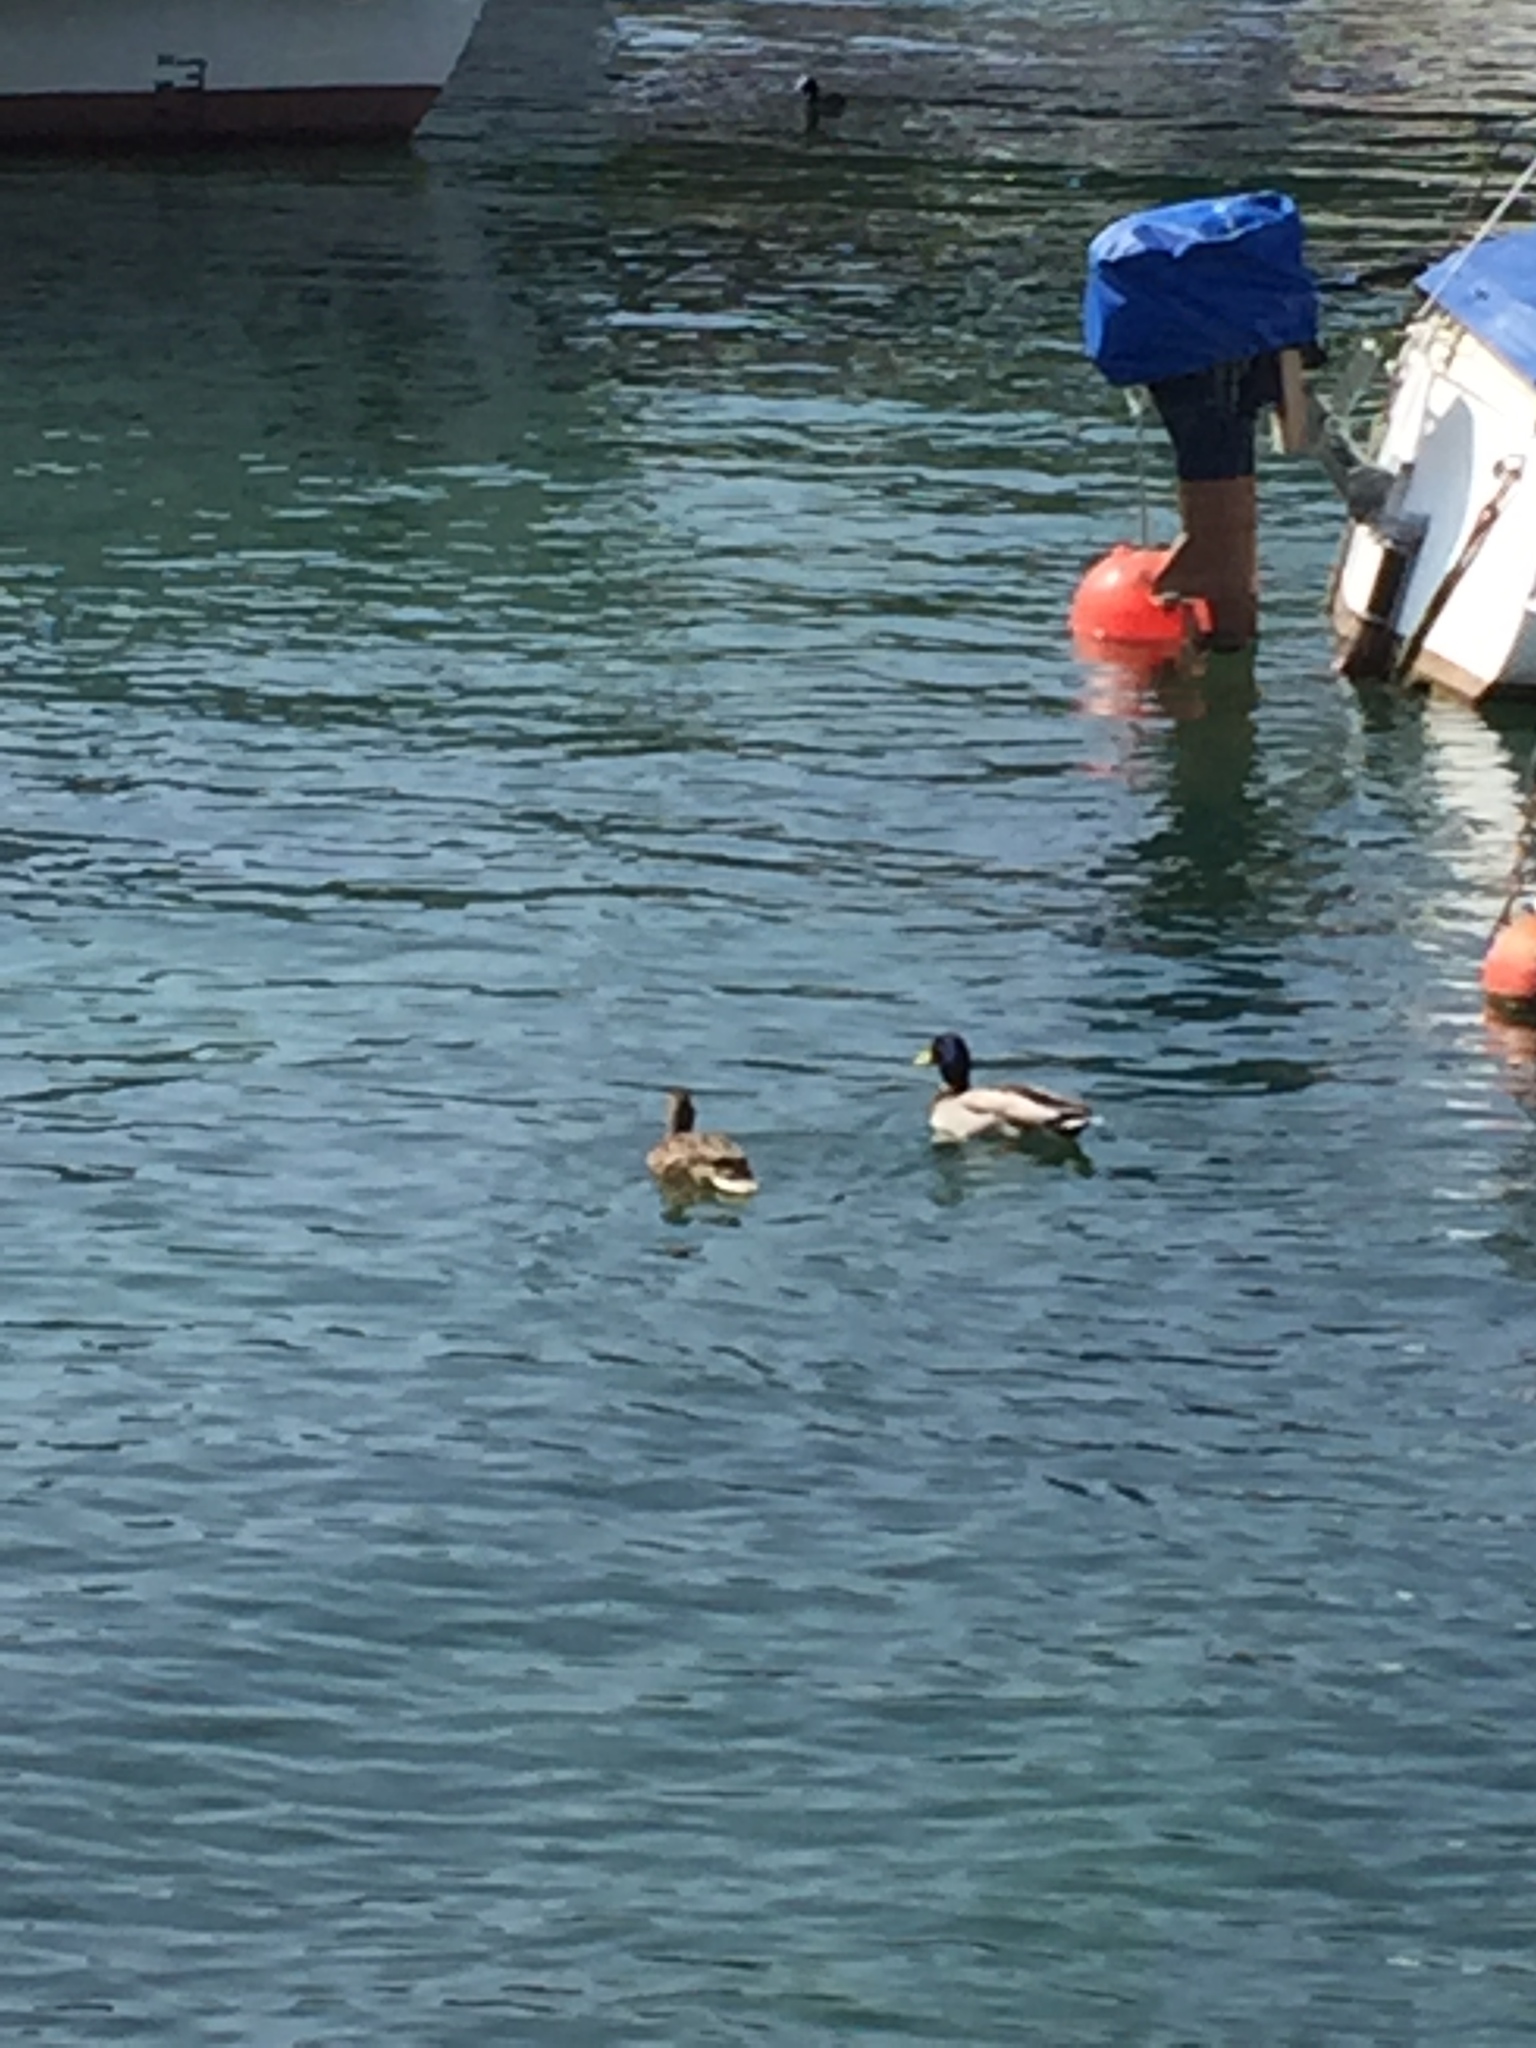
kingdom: Animalia
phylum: Chordata
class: Aves
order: Anseriformes
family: Anatidae
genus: Anas
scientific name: Anas platyrhynchos
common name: Mallard
